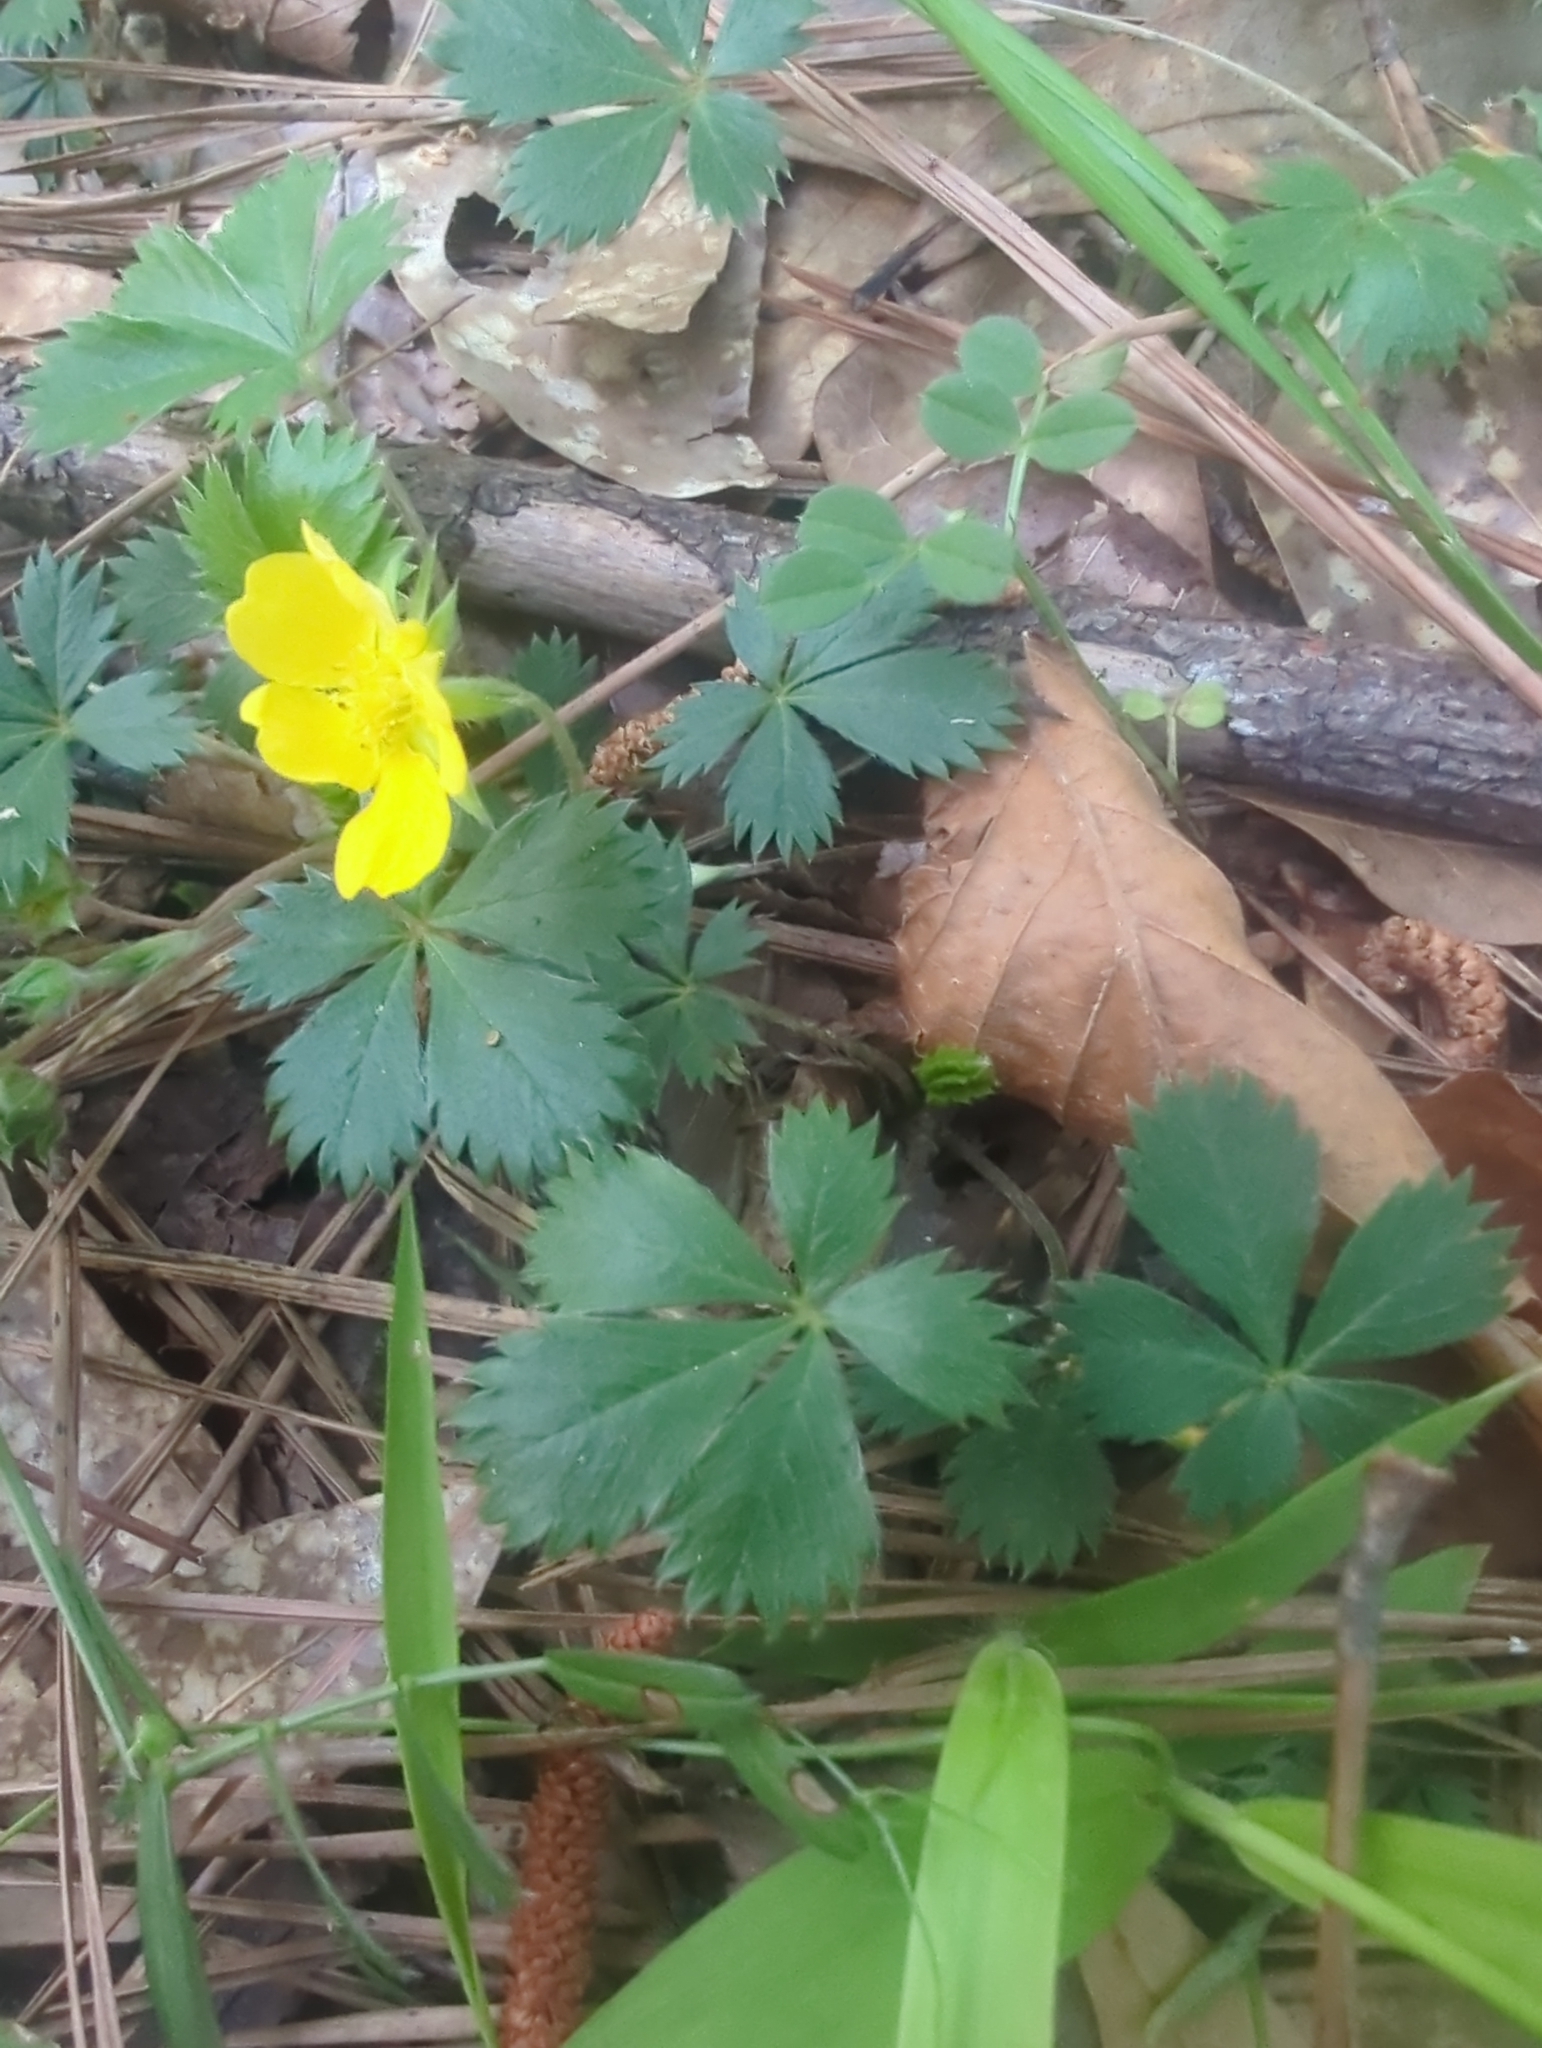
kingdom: Plantae
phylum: Tracheophyta
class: Magnoliopsida
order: Rosales
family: Rosaceae
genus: Potentilla
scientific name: Potentilla canadensis
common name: Canada cinquefoil
